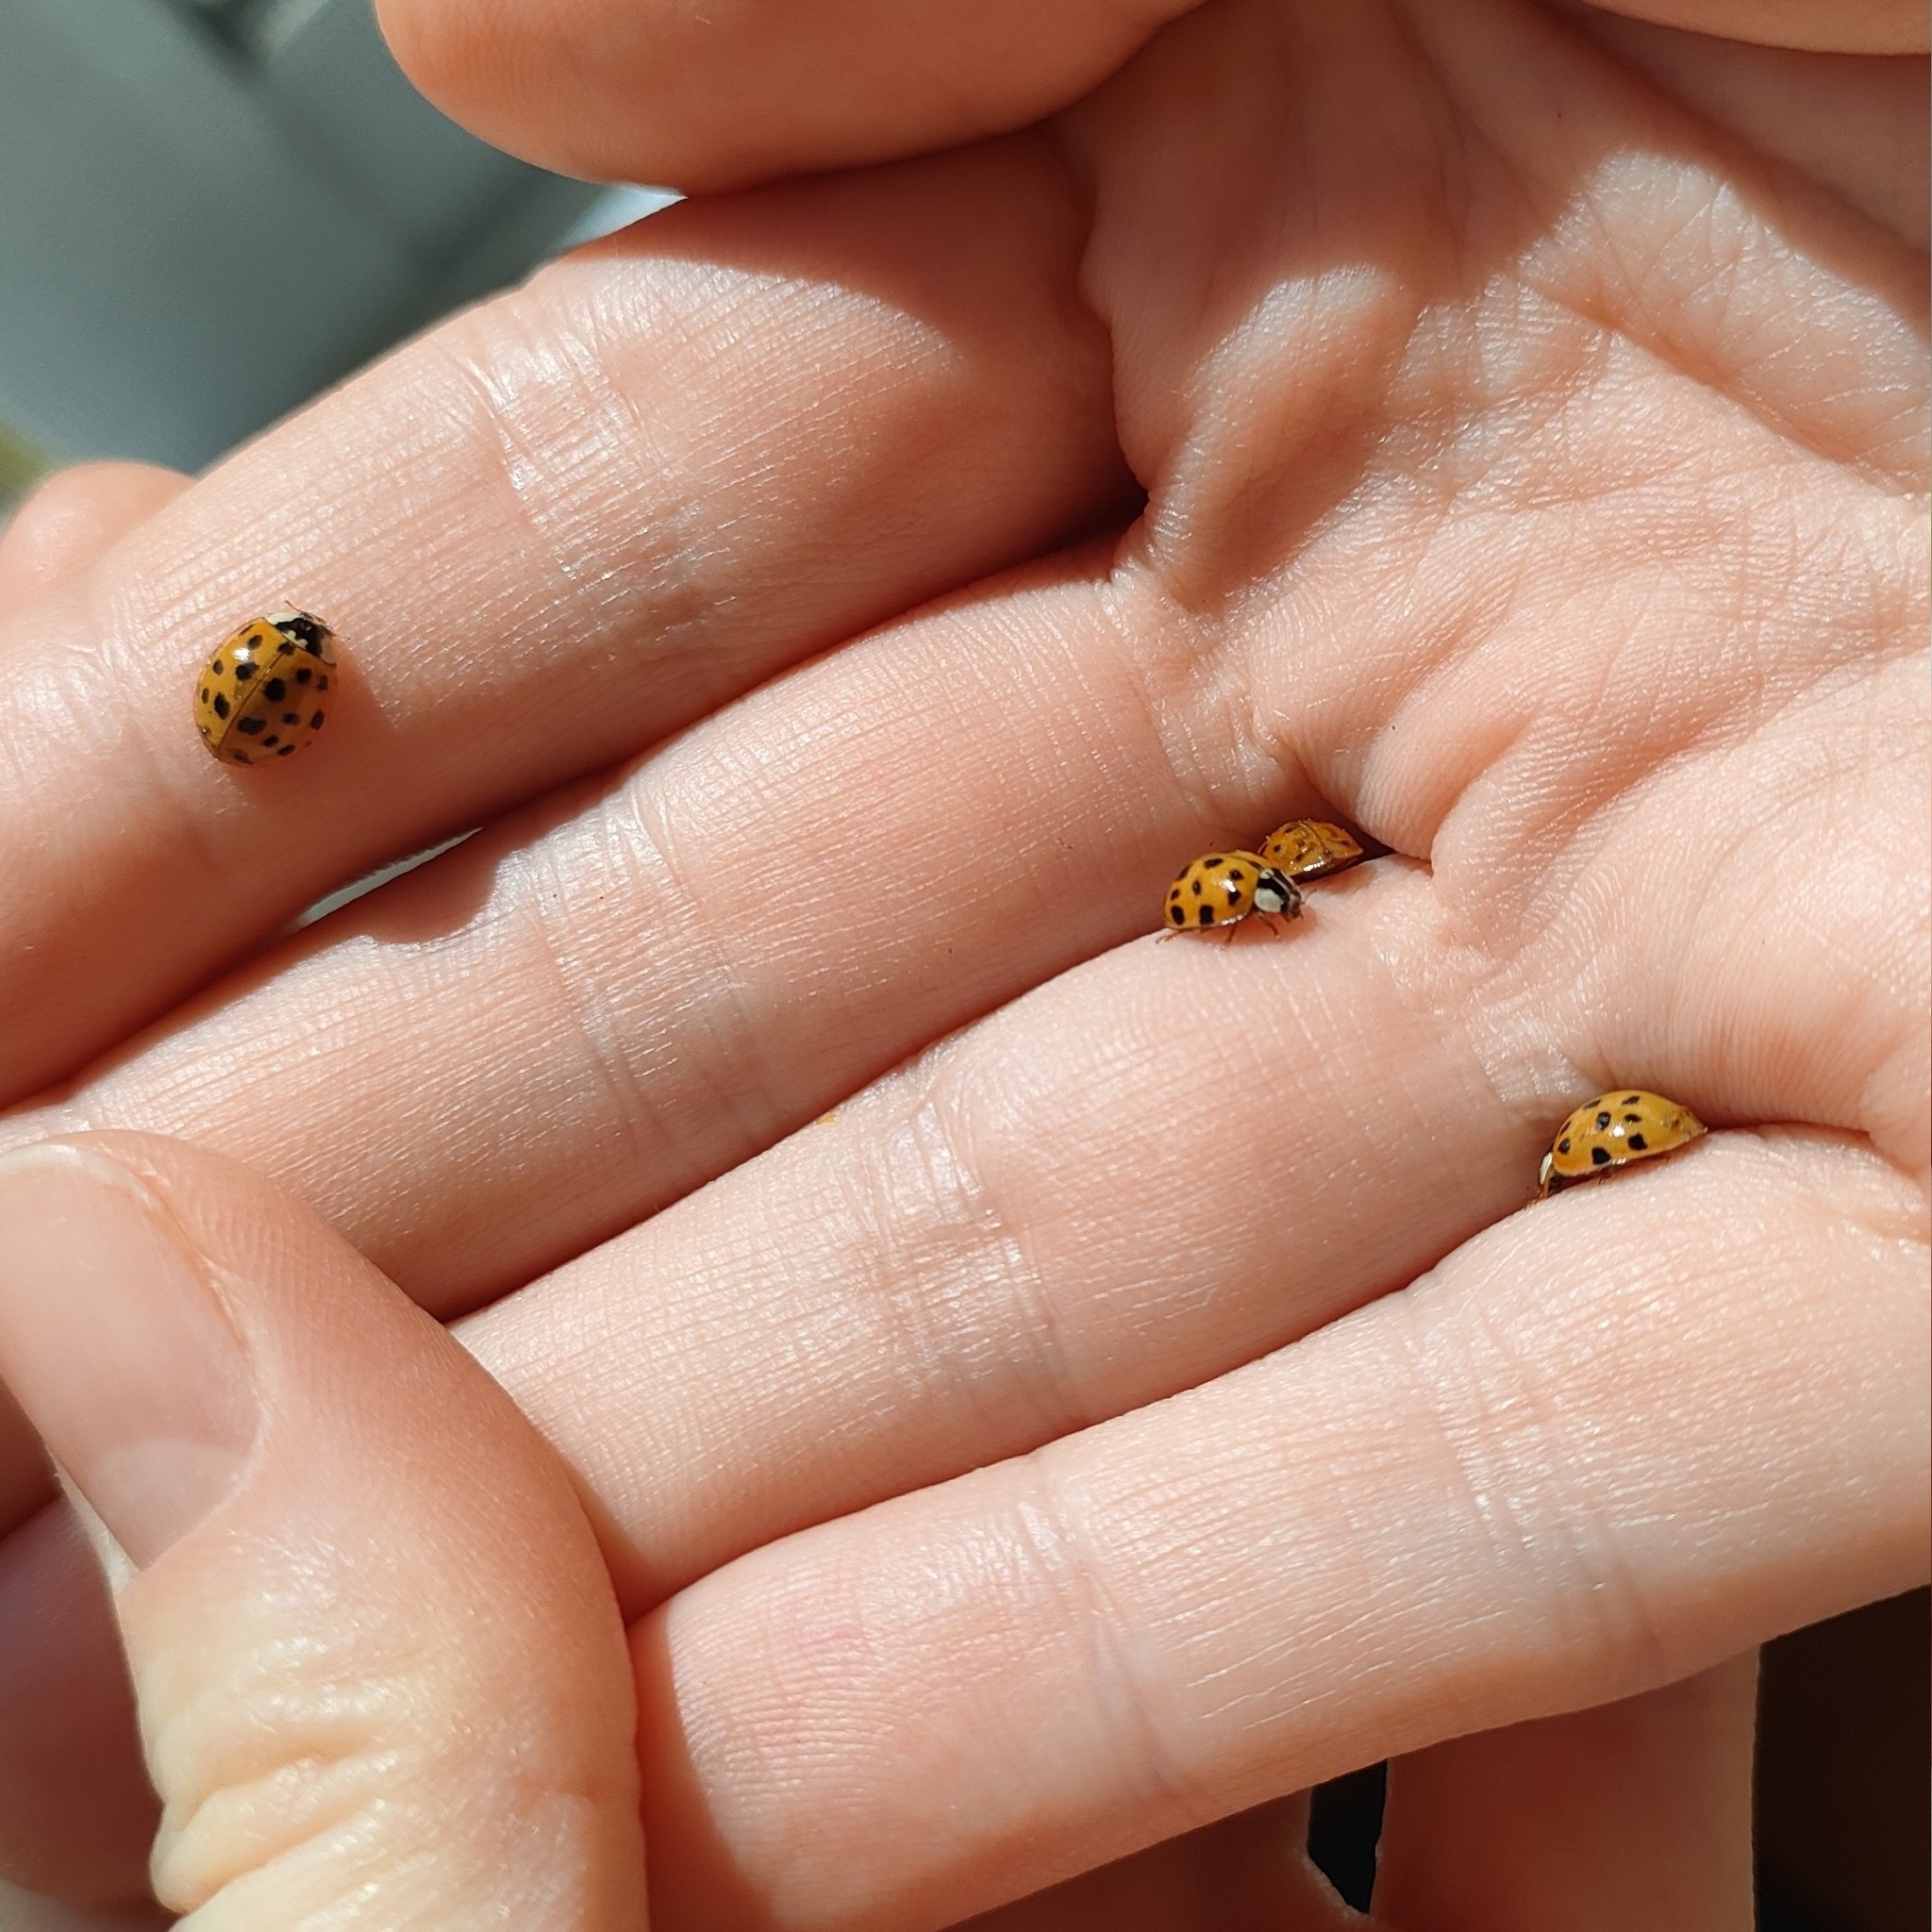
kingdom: Animalia
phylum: Arthropoda
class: Insecta
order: Coleoptera
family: Coccinellidae
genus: Harmonia
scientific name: Harmonia axyridis
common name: Harlequin ladybird
